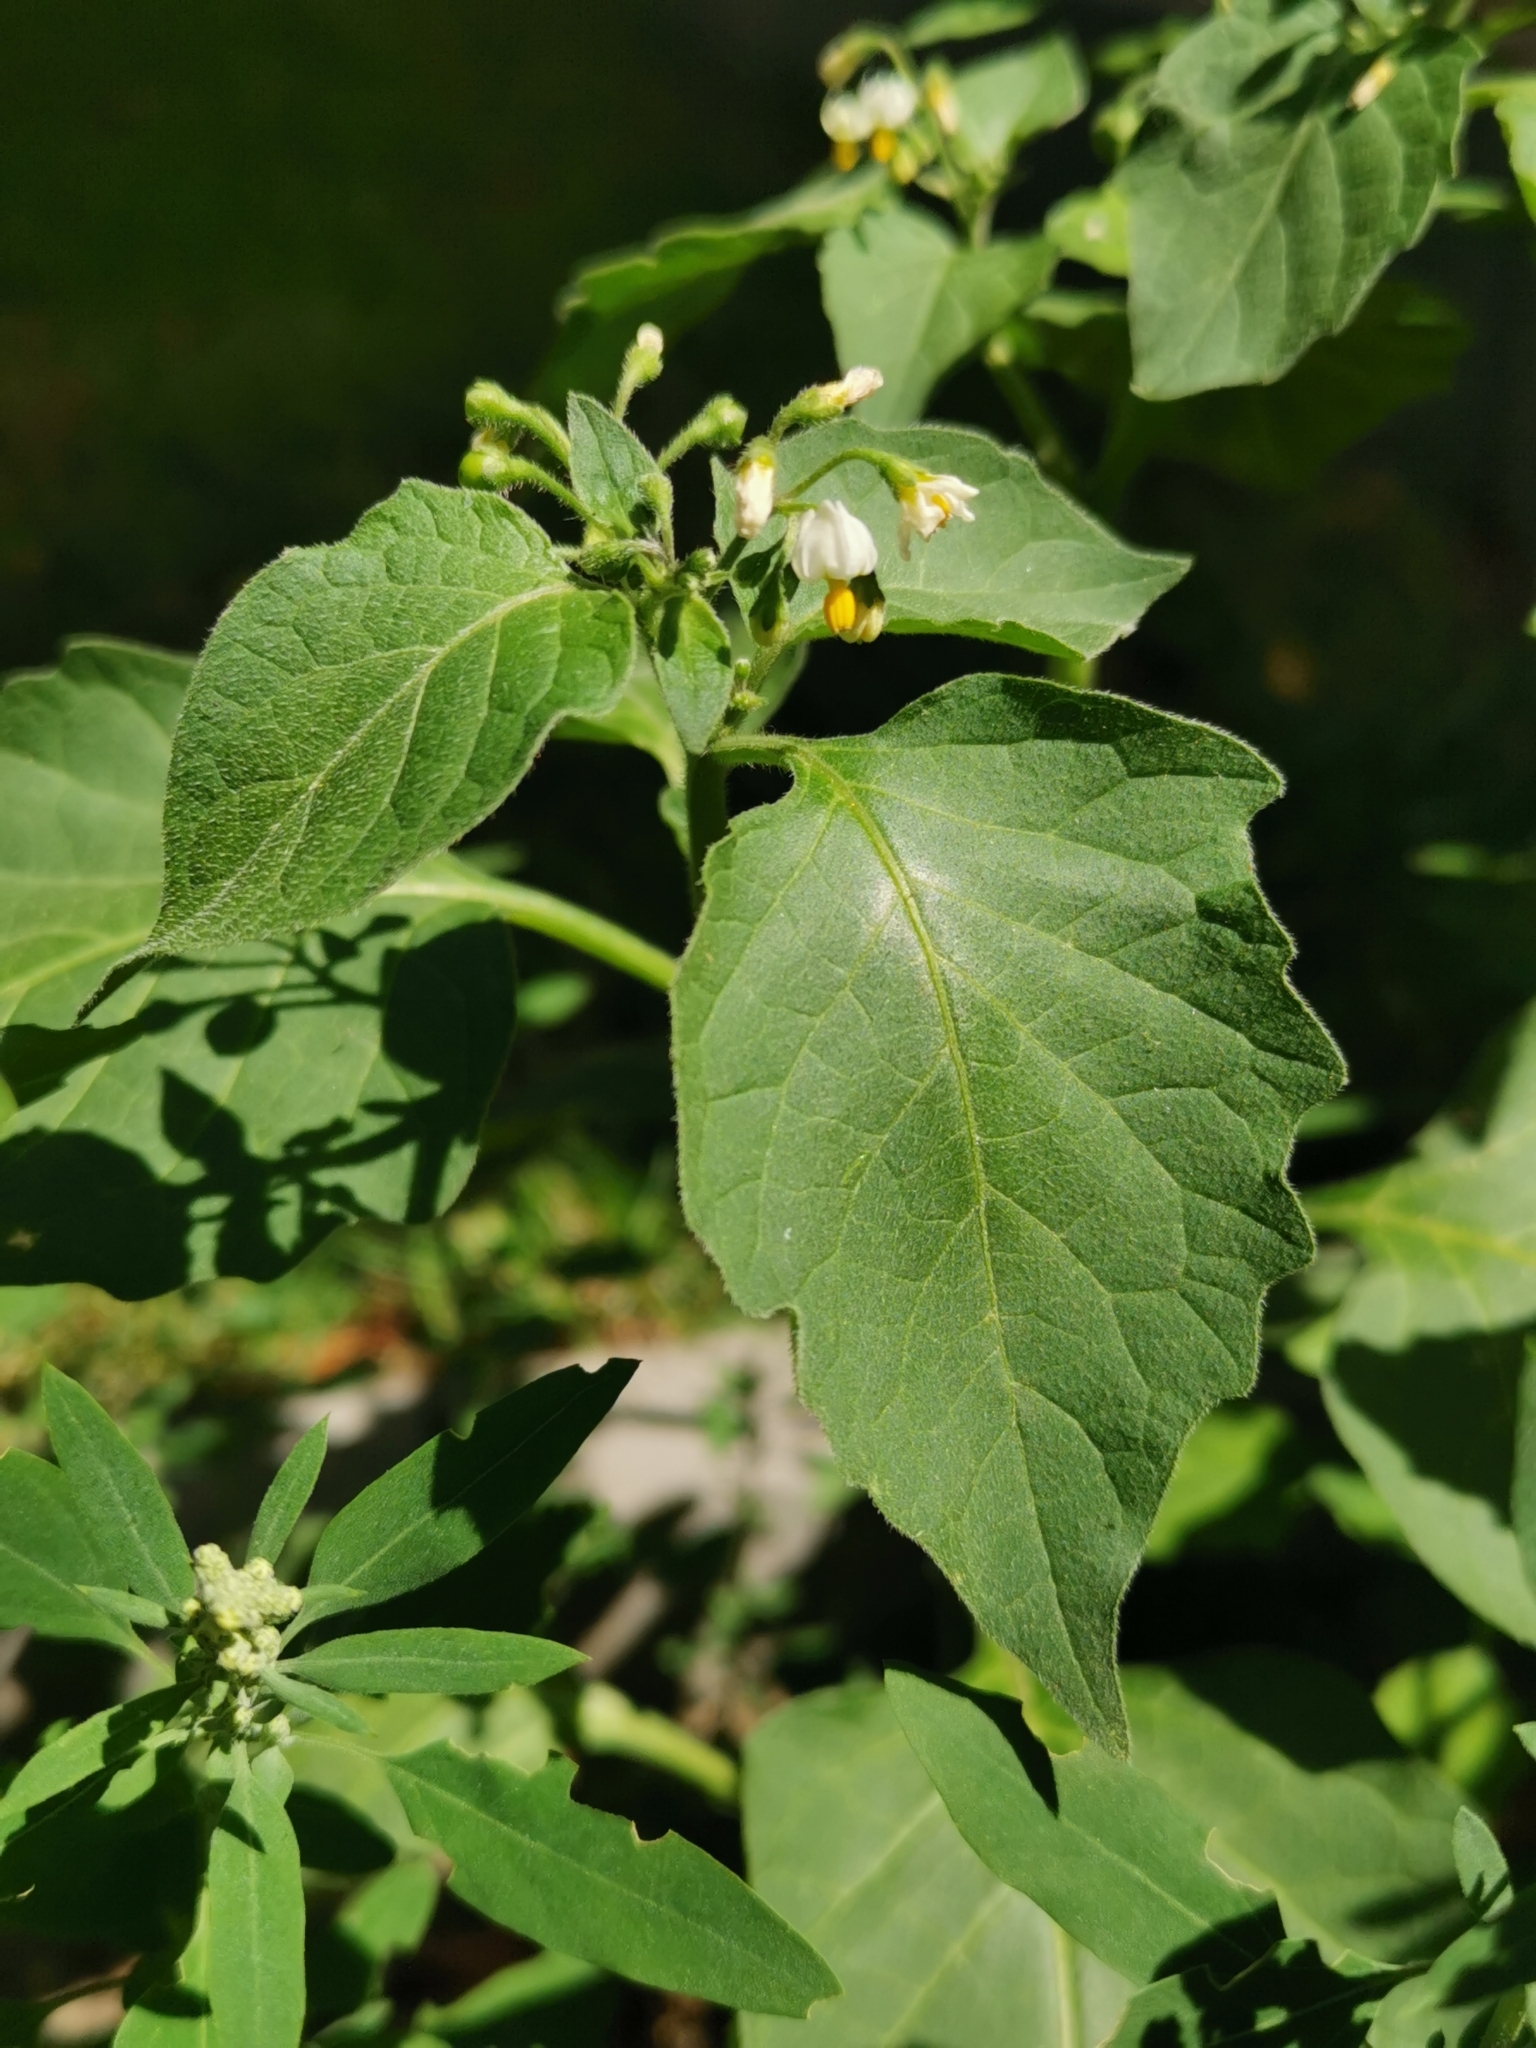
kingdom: Plantae
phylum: Tracheophyta
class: Magnoliopsida
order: Solanales
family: Solanaceae
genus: Solanum
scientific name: Solanum nigrum
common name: Black nightshade
